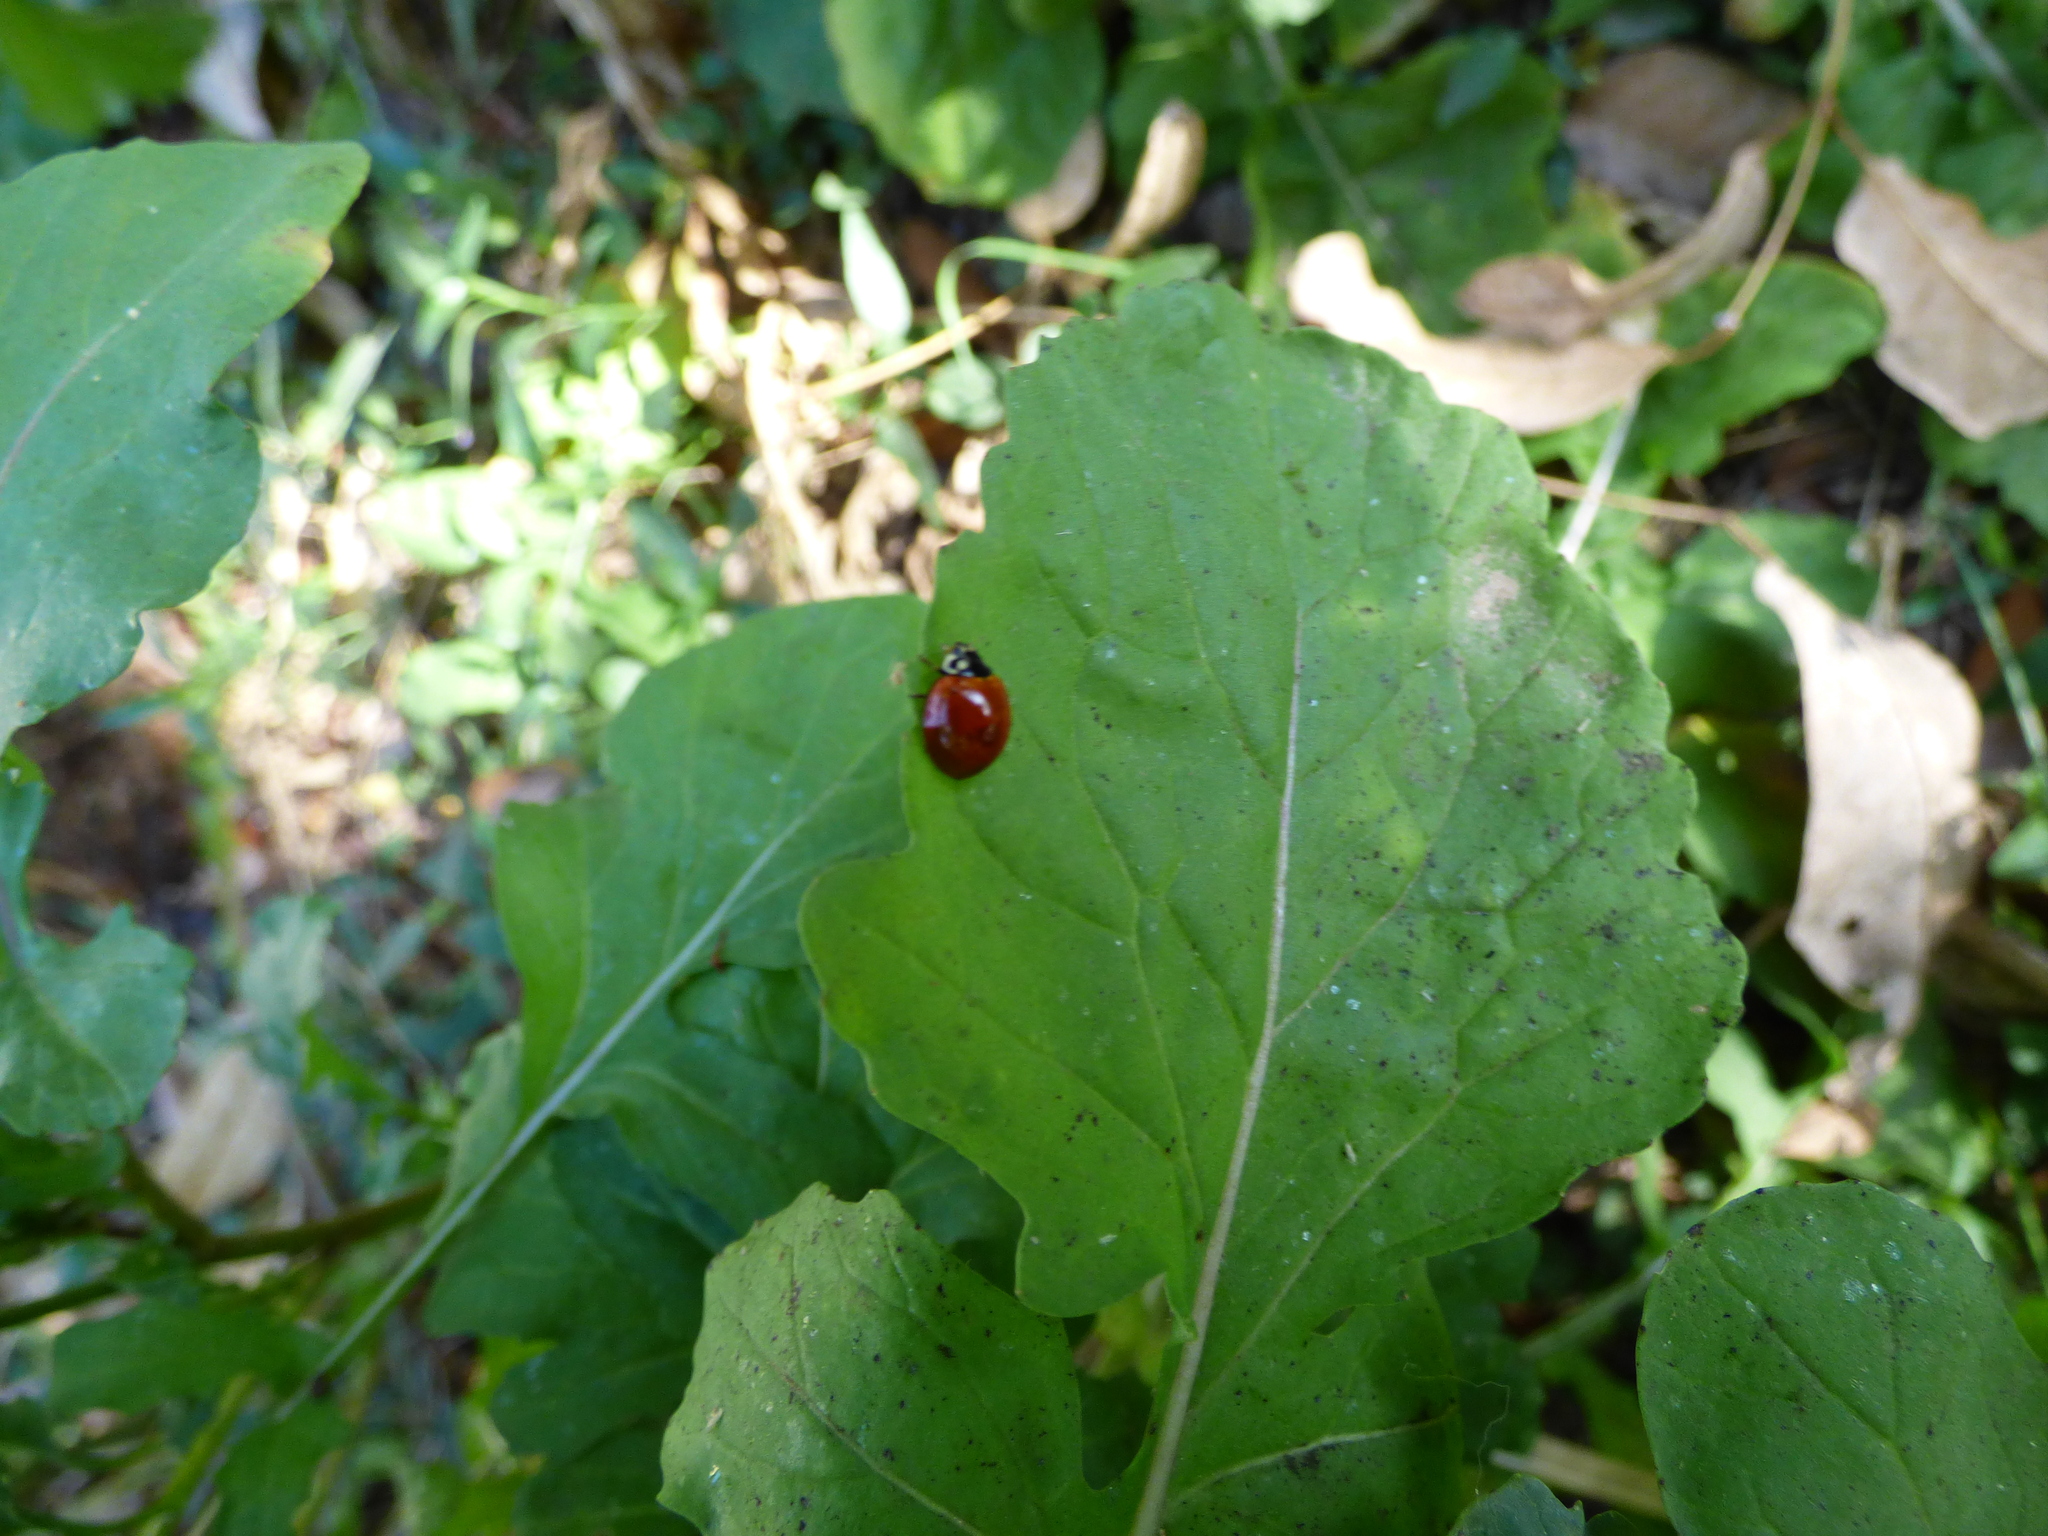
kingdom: Animalia
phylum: Arthropoda
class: Insecta
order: Coleoptera
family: Coccinellidae
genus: Cycloneda
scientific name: Cycloneda sanguinea
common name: Ladybird beetle
